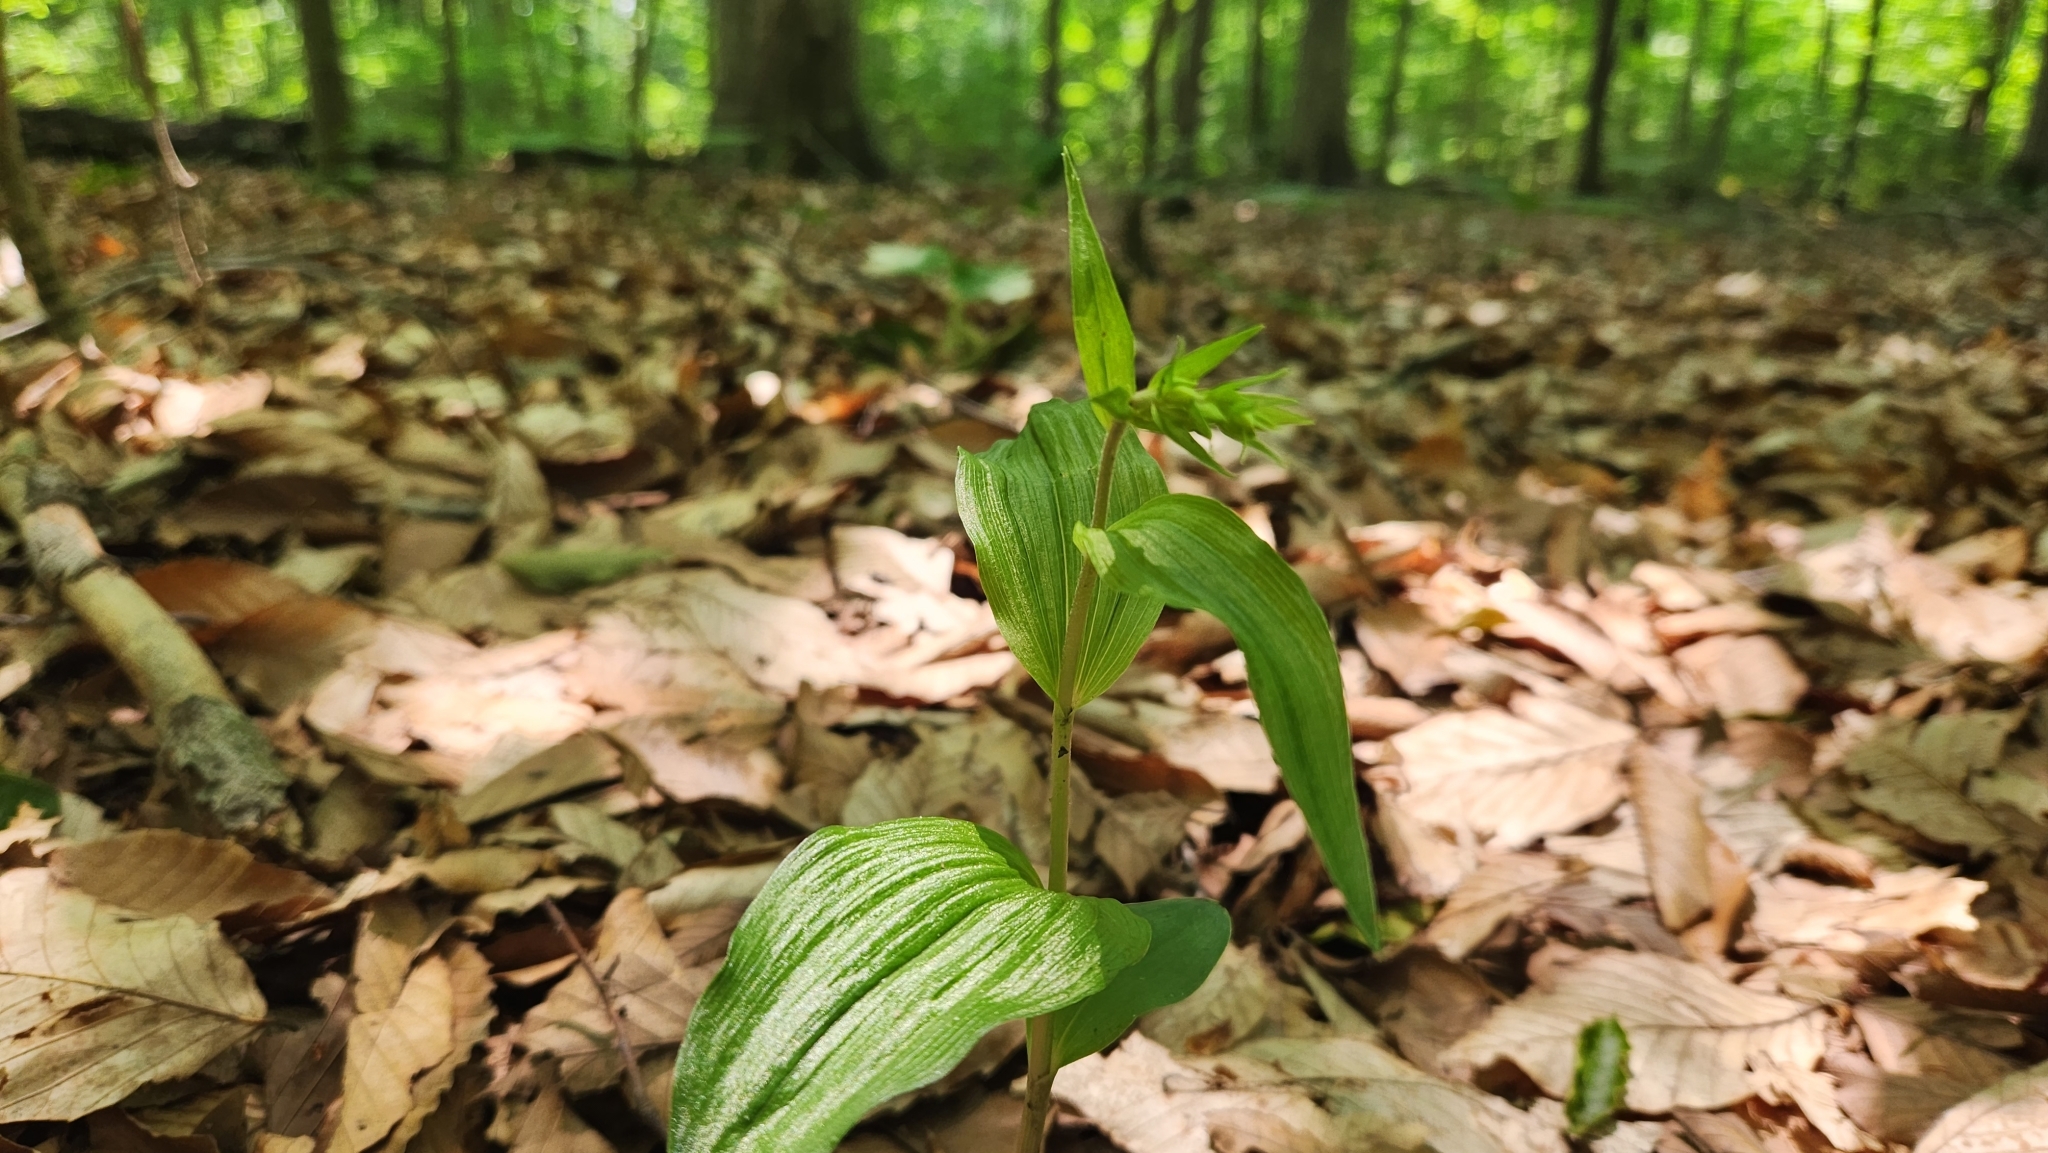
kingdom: Plantae
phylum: Tracheophyta
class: Liliopsida
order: Asparagales
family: Orchidaceae
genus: Epipactis
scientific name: Epipactis helleborine
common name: Broad-leaved helleborine
